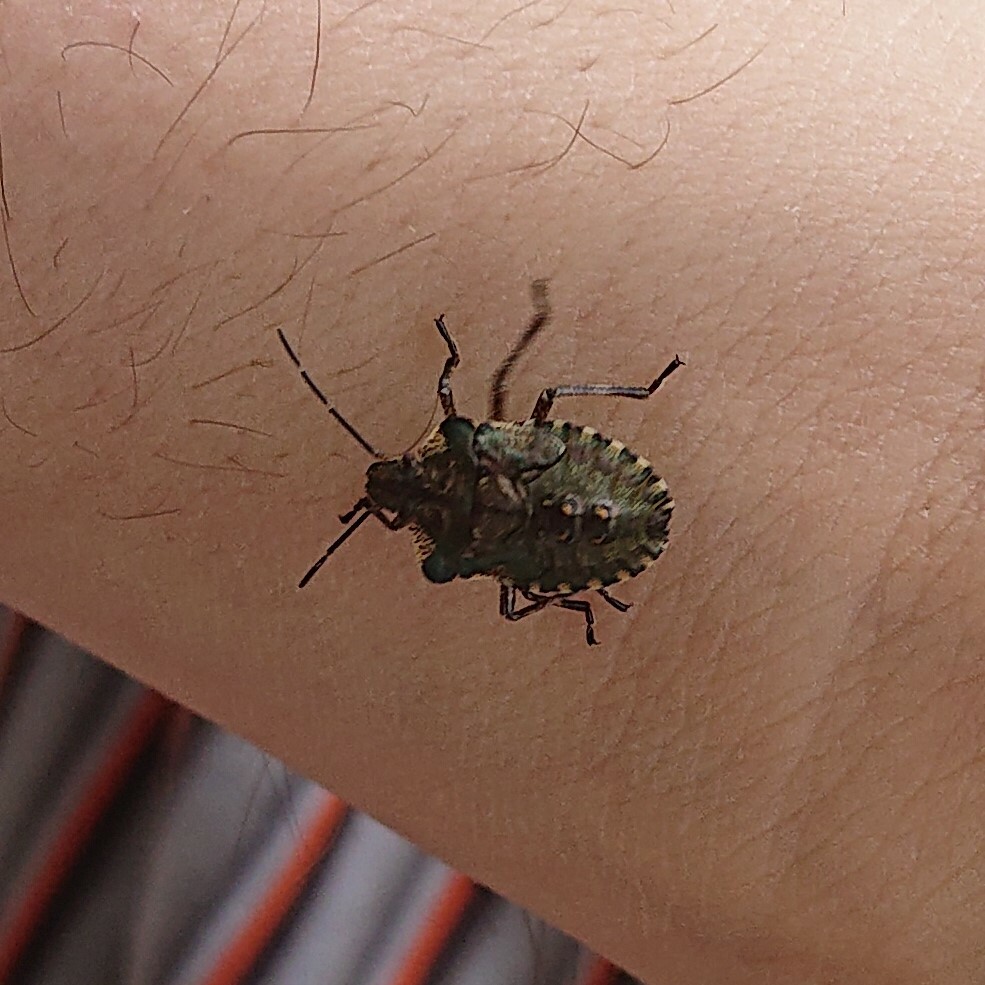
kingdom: Animalia
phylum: Arthropoda
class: Insecta
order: Hemiptera
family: Pentatomidae
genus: Pentatoma
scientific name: Pentatoma rufipes
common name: Forest bug
